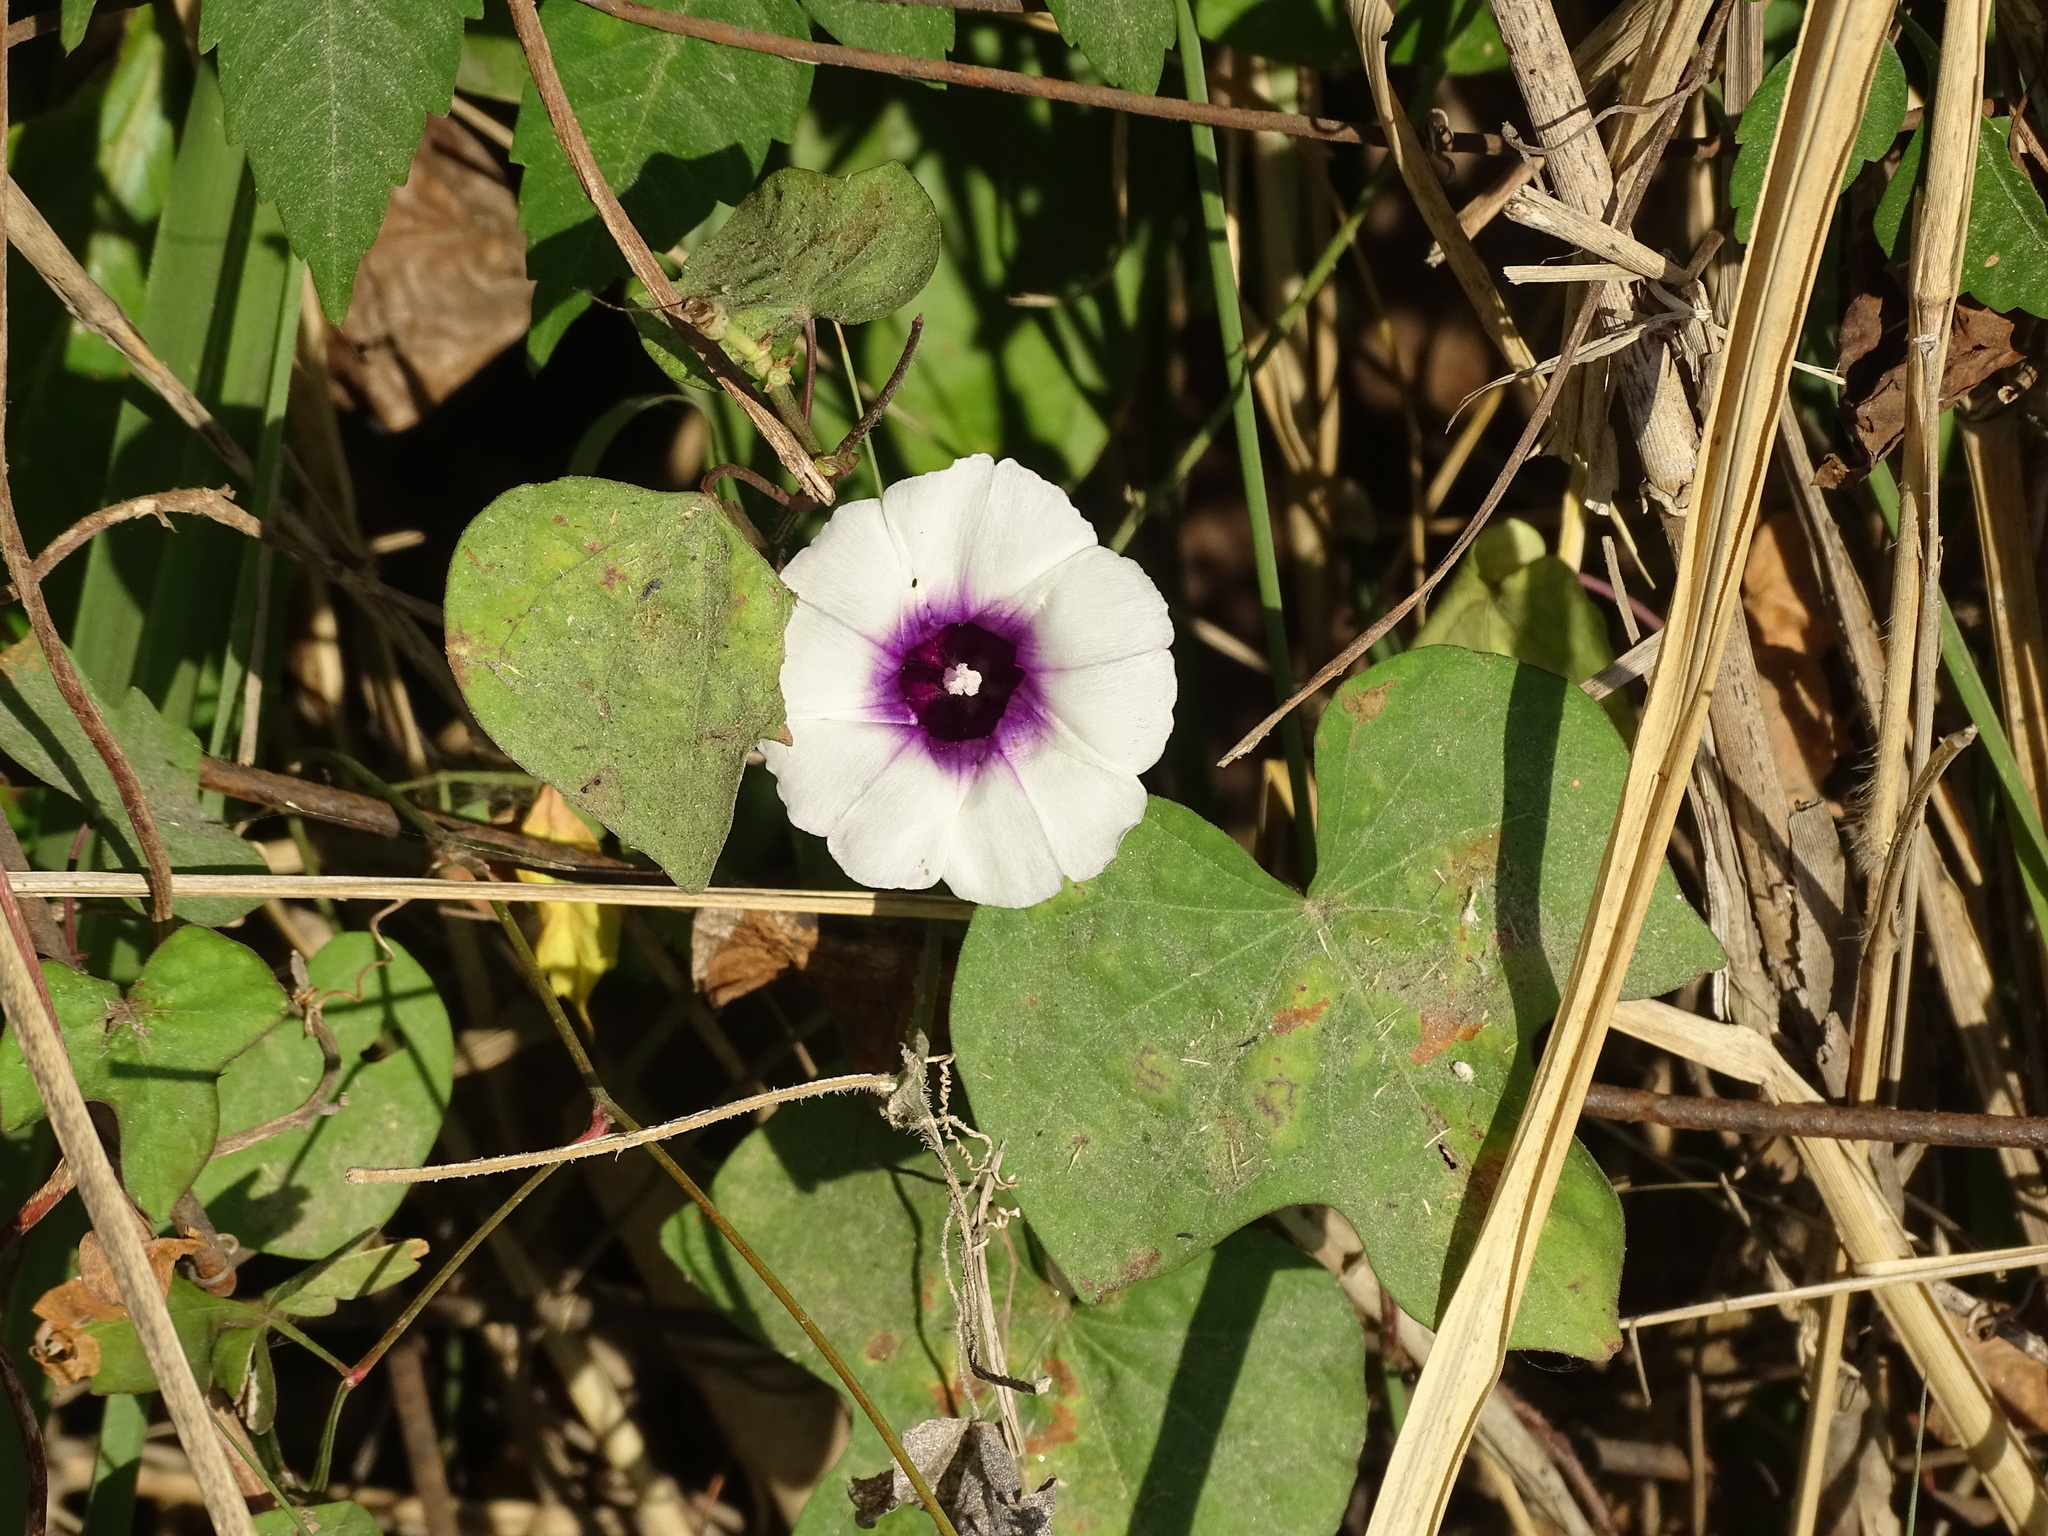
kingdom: Plantae
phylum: Tracheophyta
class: Magnoliopsida
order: Solanales
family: Convolvulaceae
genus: Ipomoea
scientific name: Ipomoea batatas
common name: Sweet-potato
